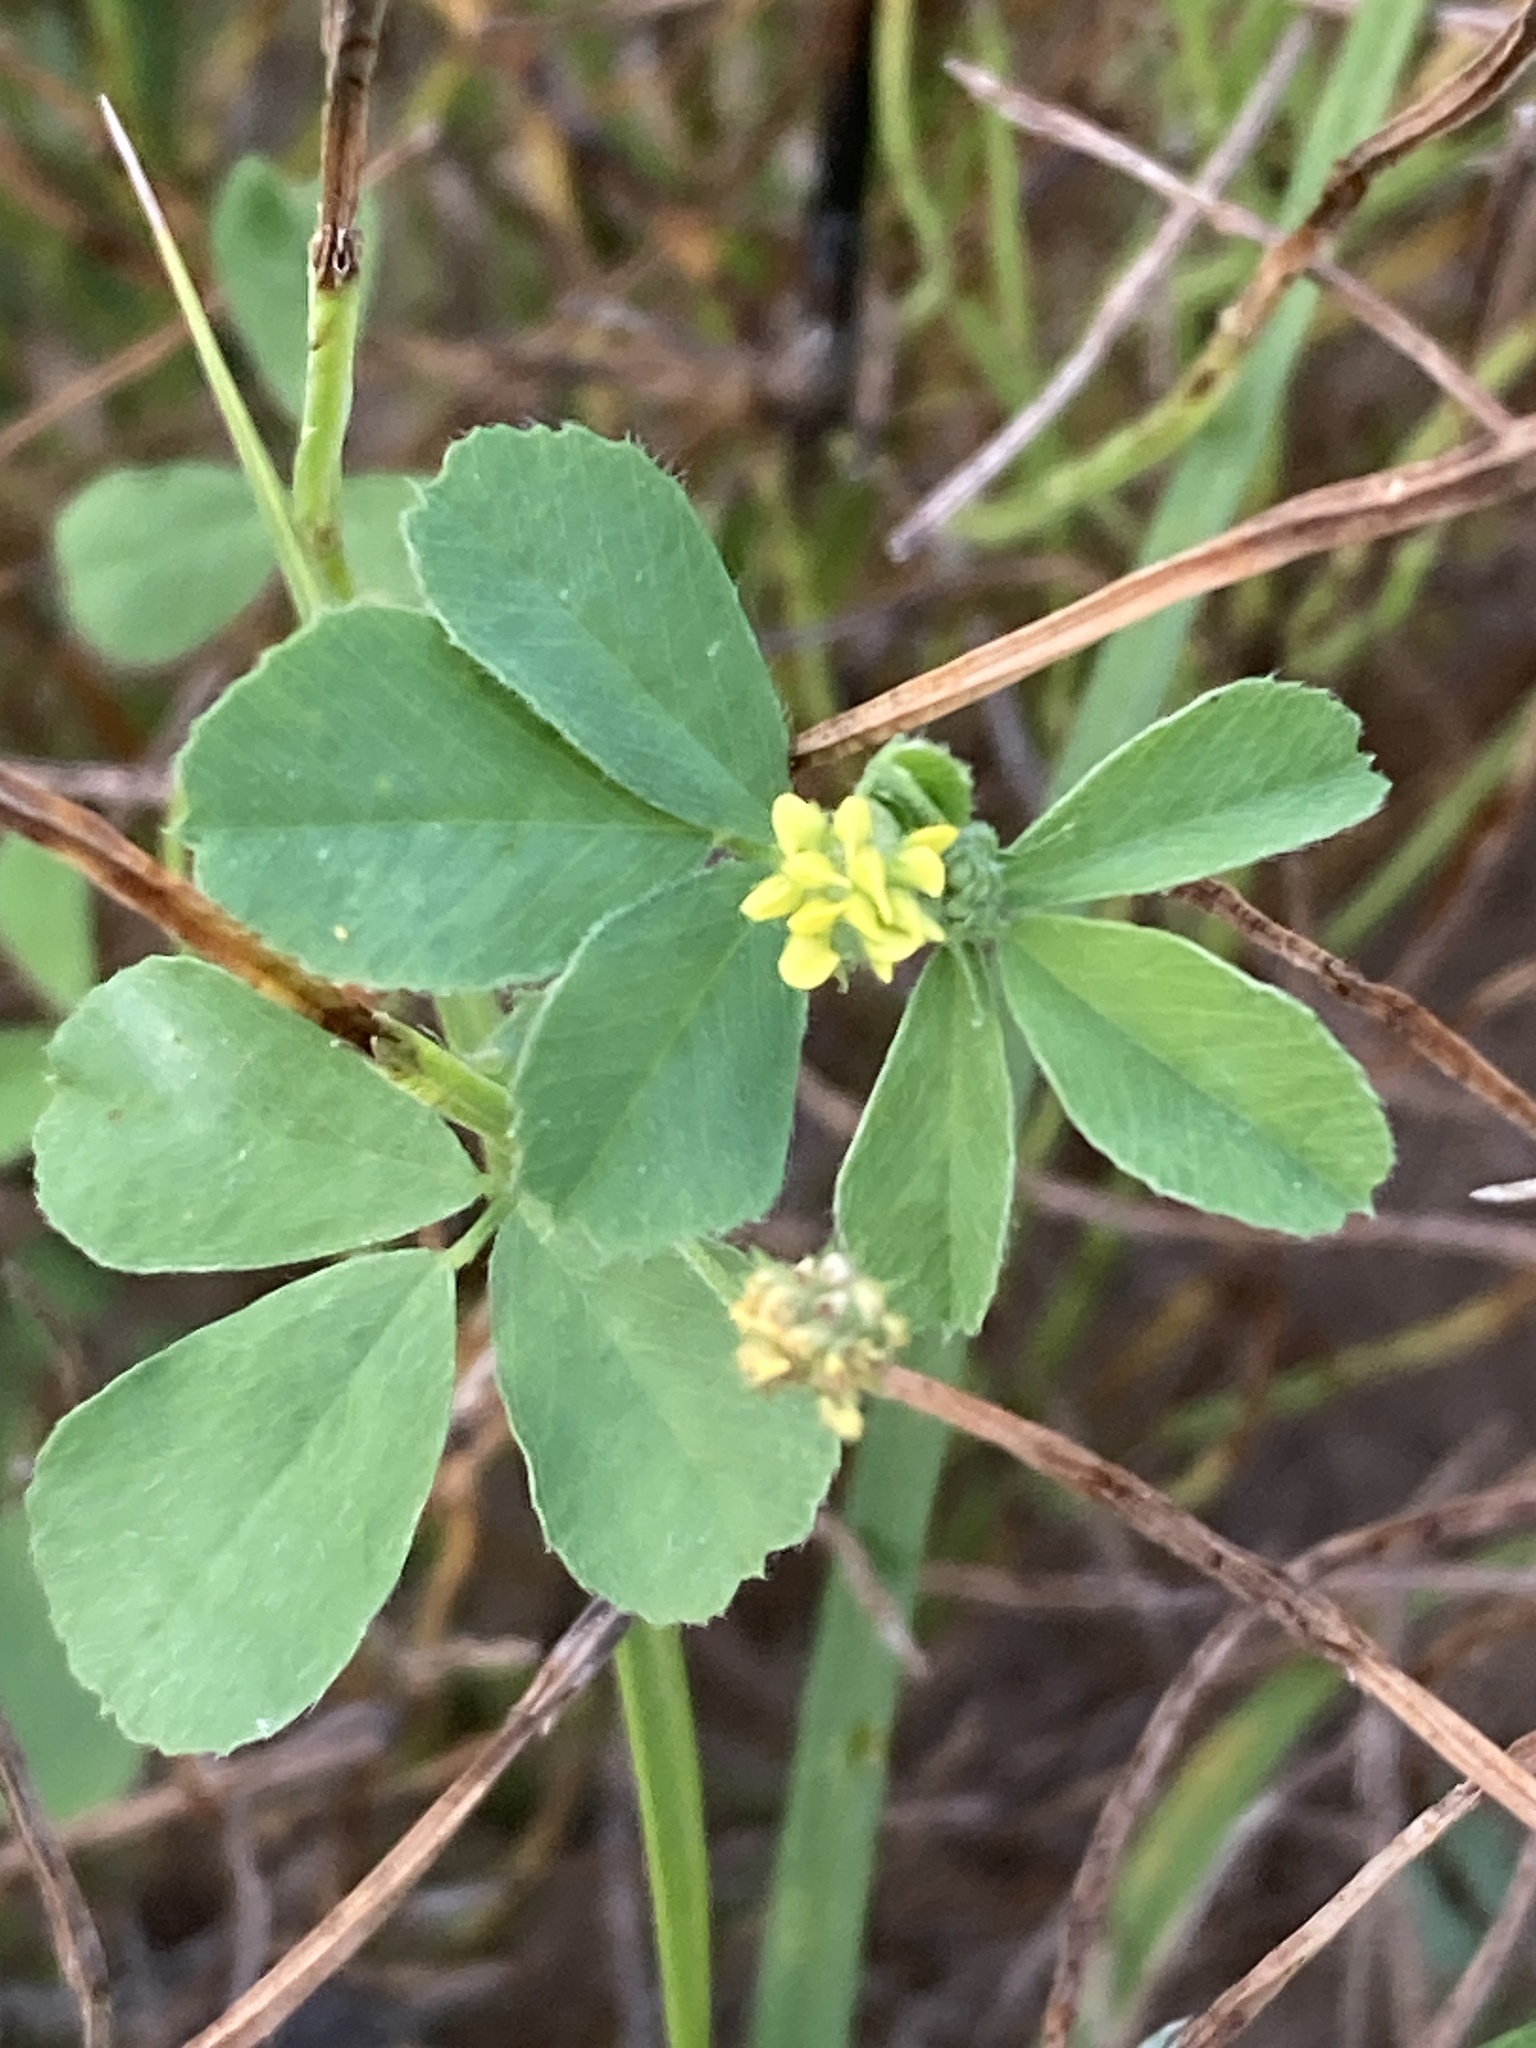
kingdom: Plantae
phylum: Tracheophyta
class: Magnoliopsida
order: Fabales
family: Fabaceae
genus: Medicago
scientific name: Medicago lupulina
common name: Black medick
